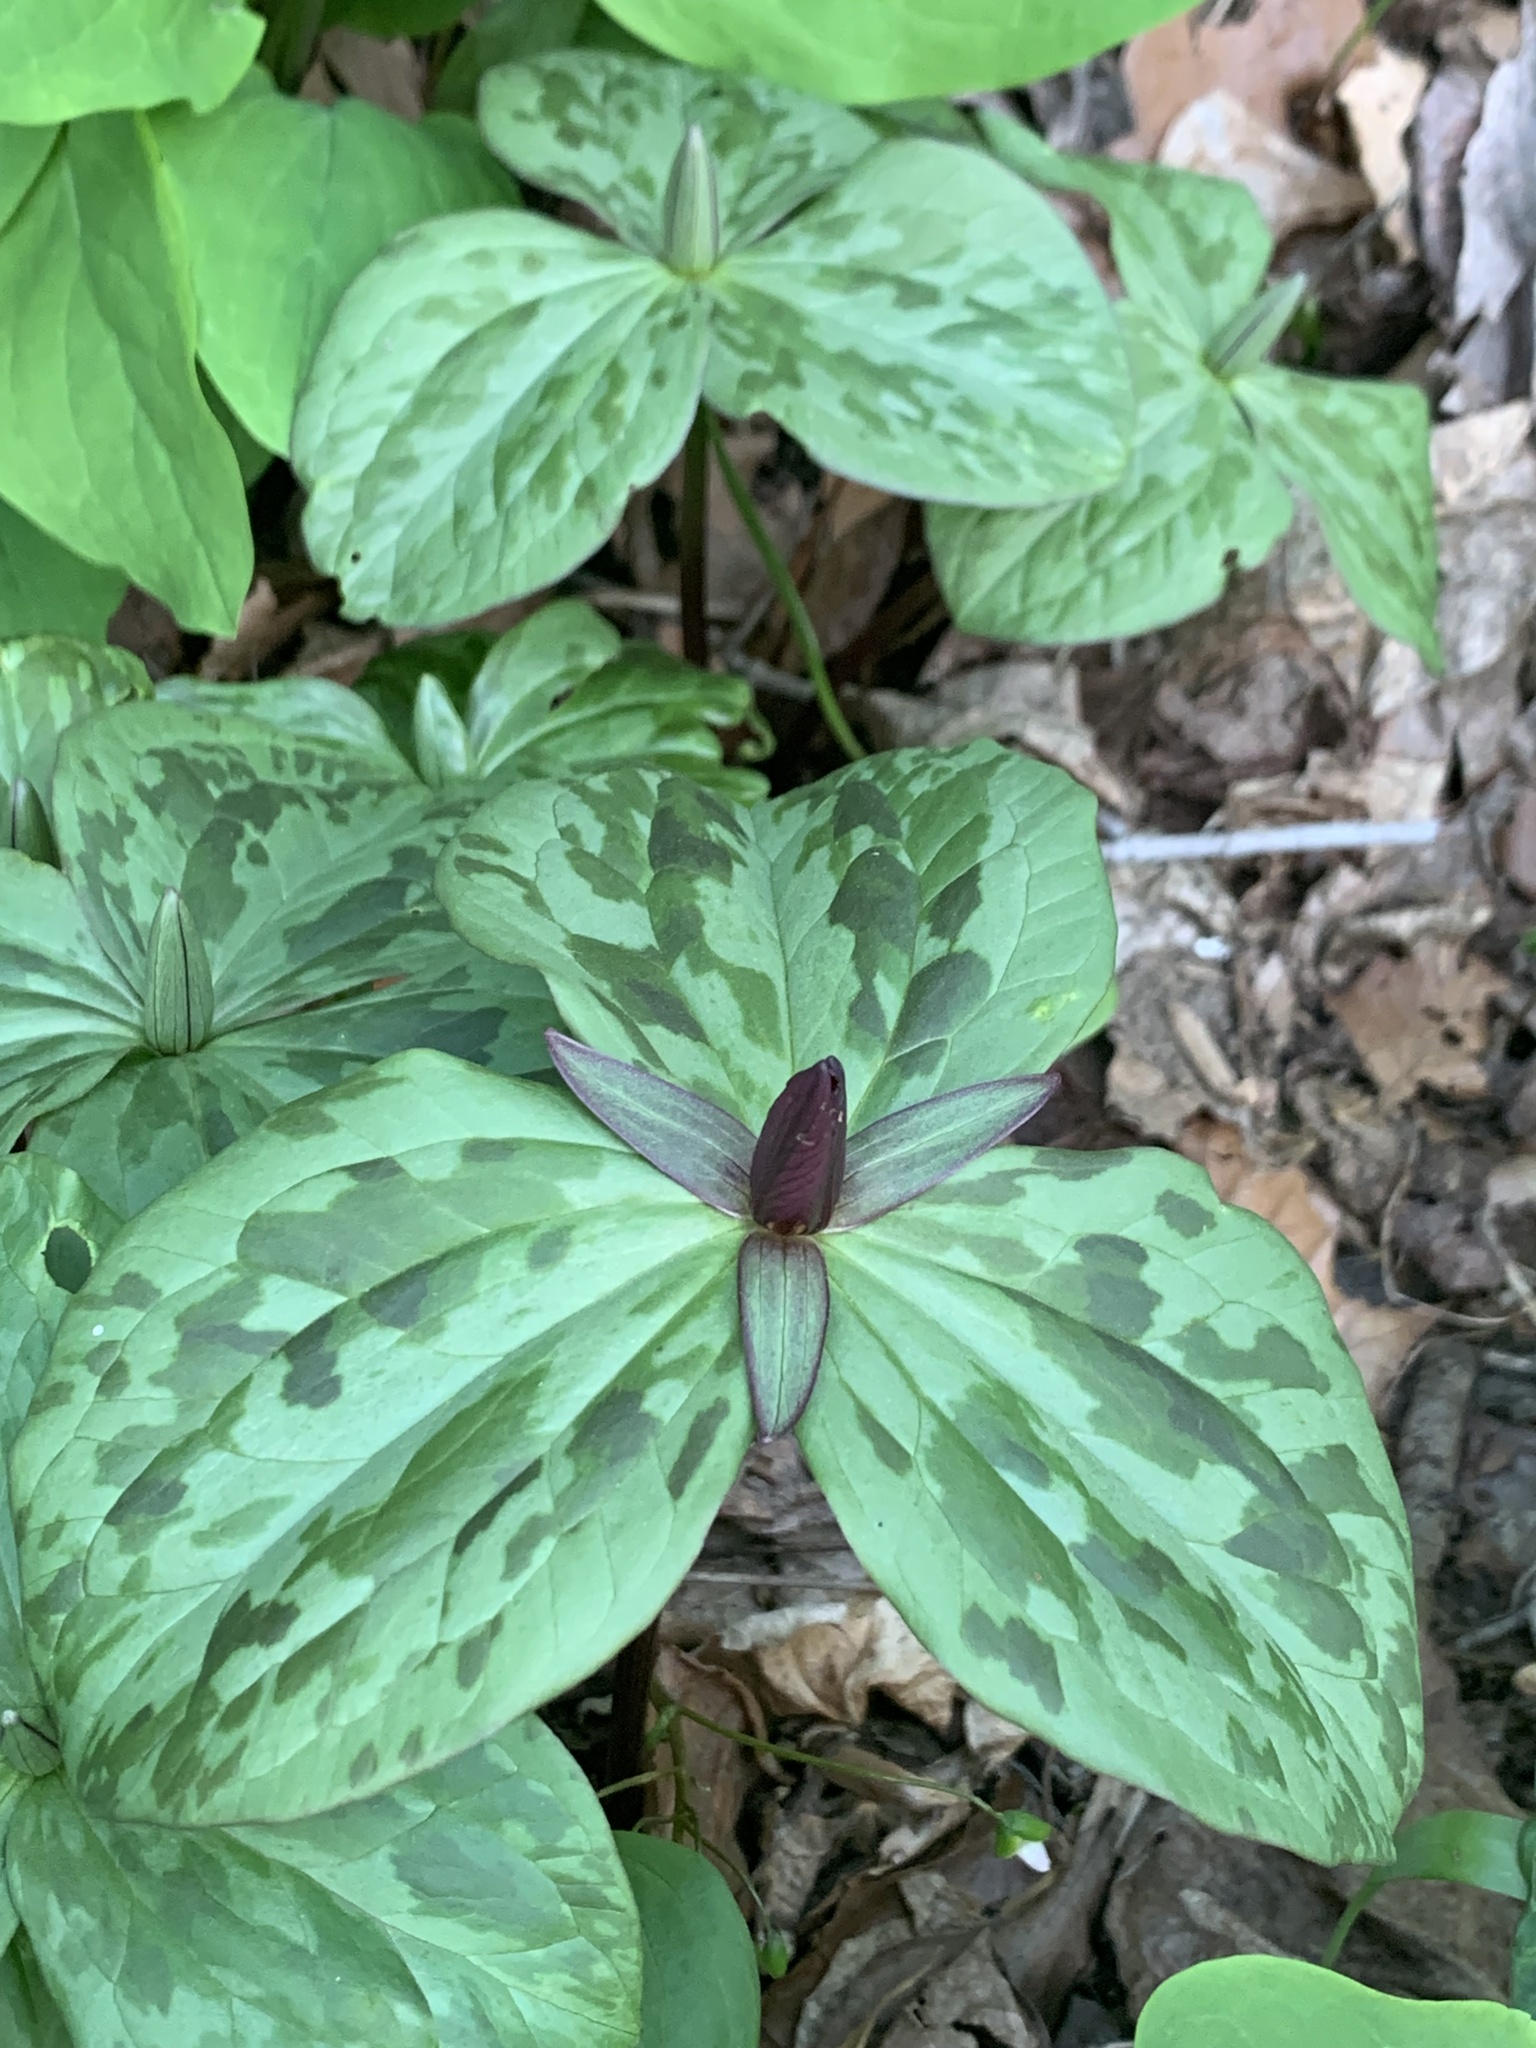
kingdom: Plantae
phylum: Tracheophyta
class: Liliopsida
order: Liliales
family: Melanthiaceae
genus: Trillium
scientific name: Trillium sessile
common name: Sessile trillium
